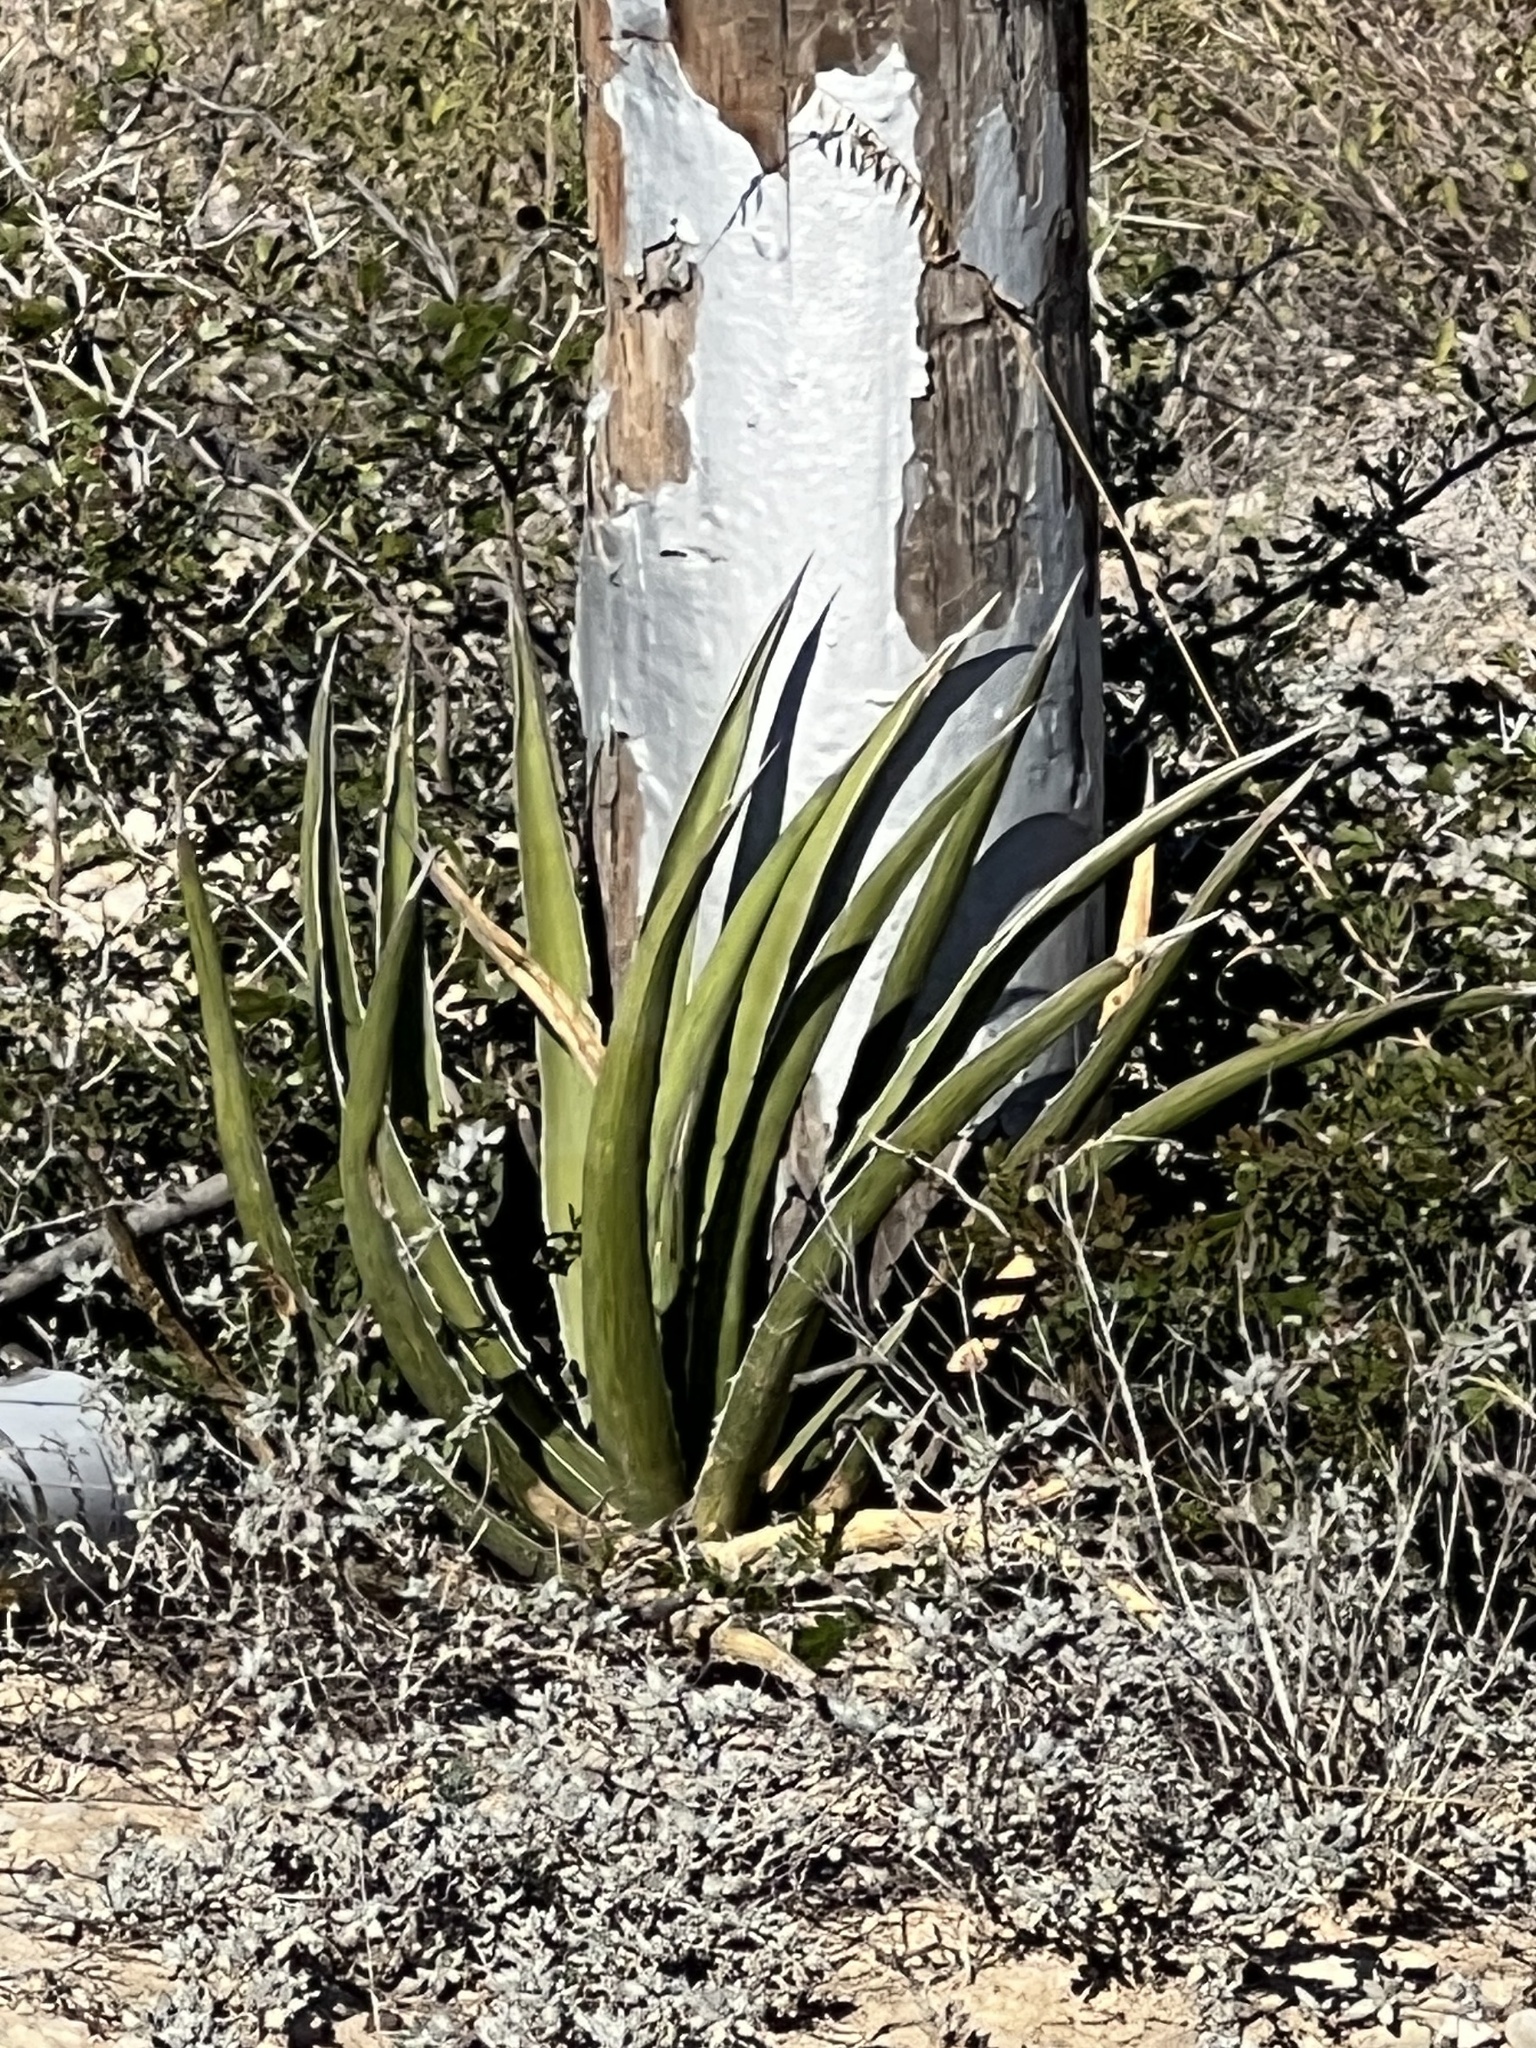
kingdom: Plantae
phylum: Tracheophyta
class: Liliopsida
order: Asparagales
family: Asparagaceae
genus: Agave
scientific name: Agave lechuguilla
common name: Lecheguilla agave
